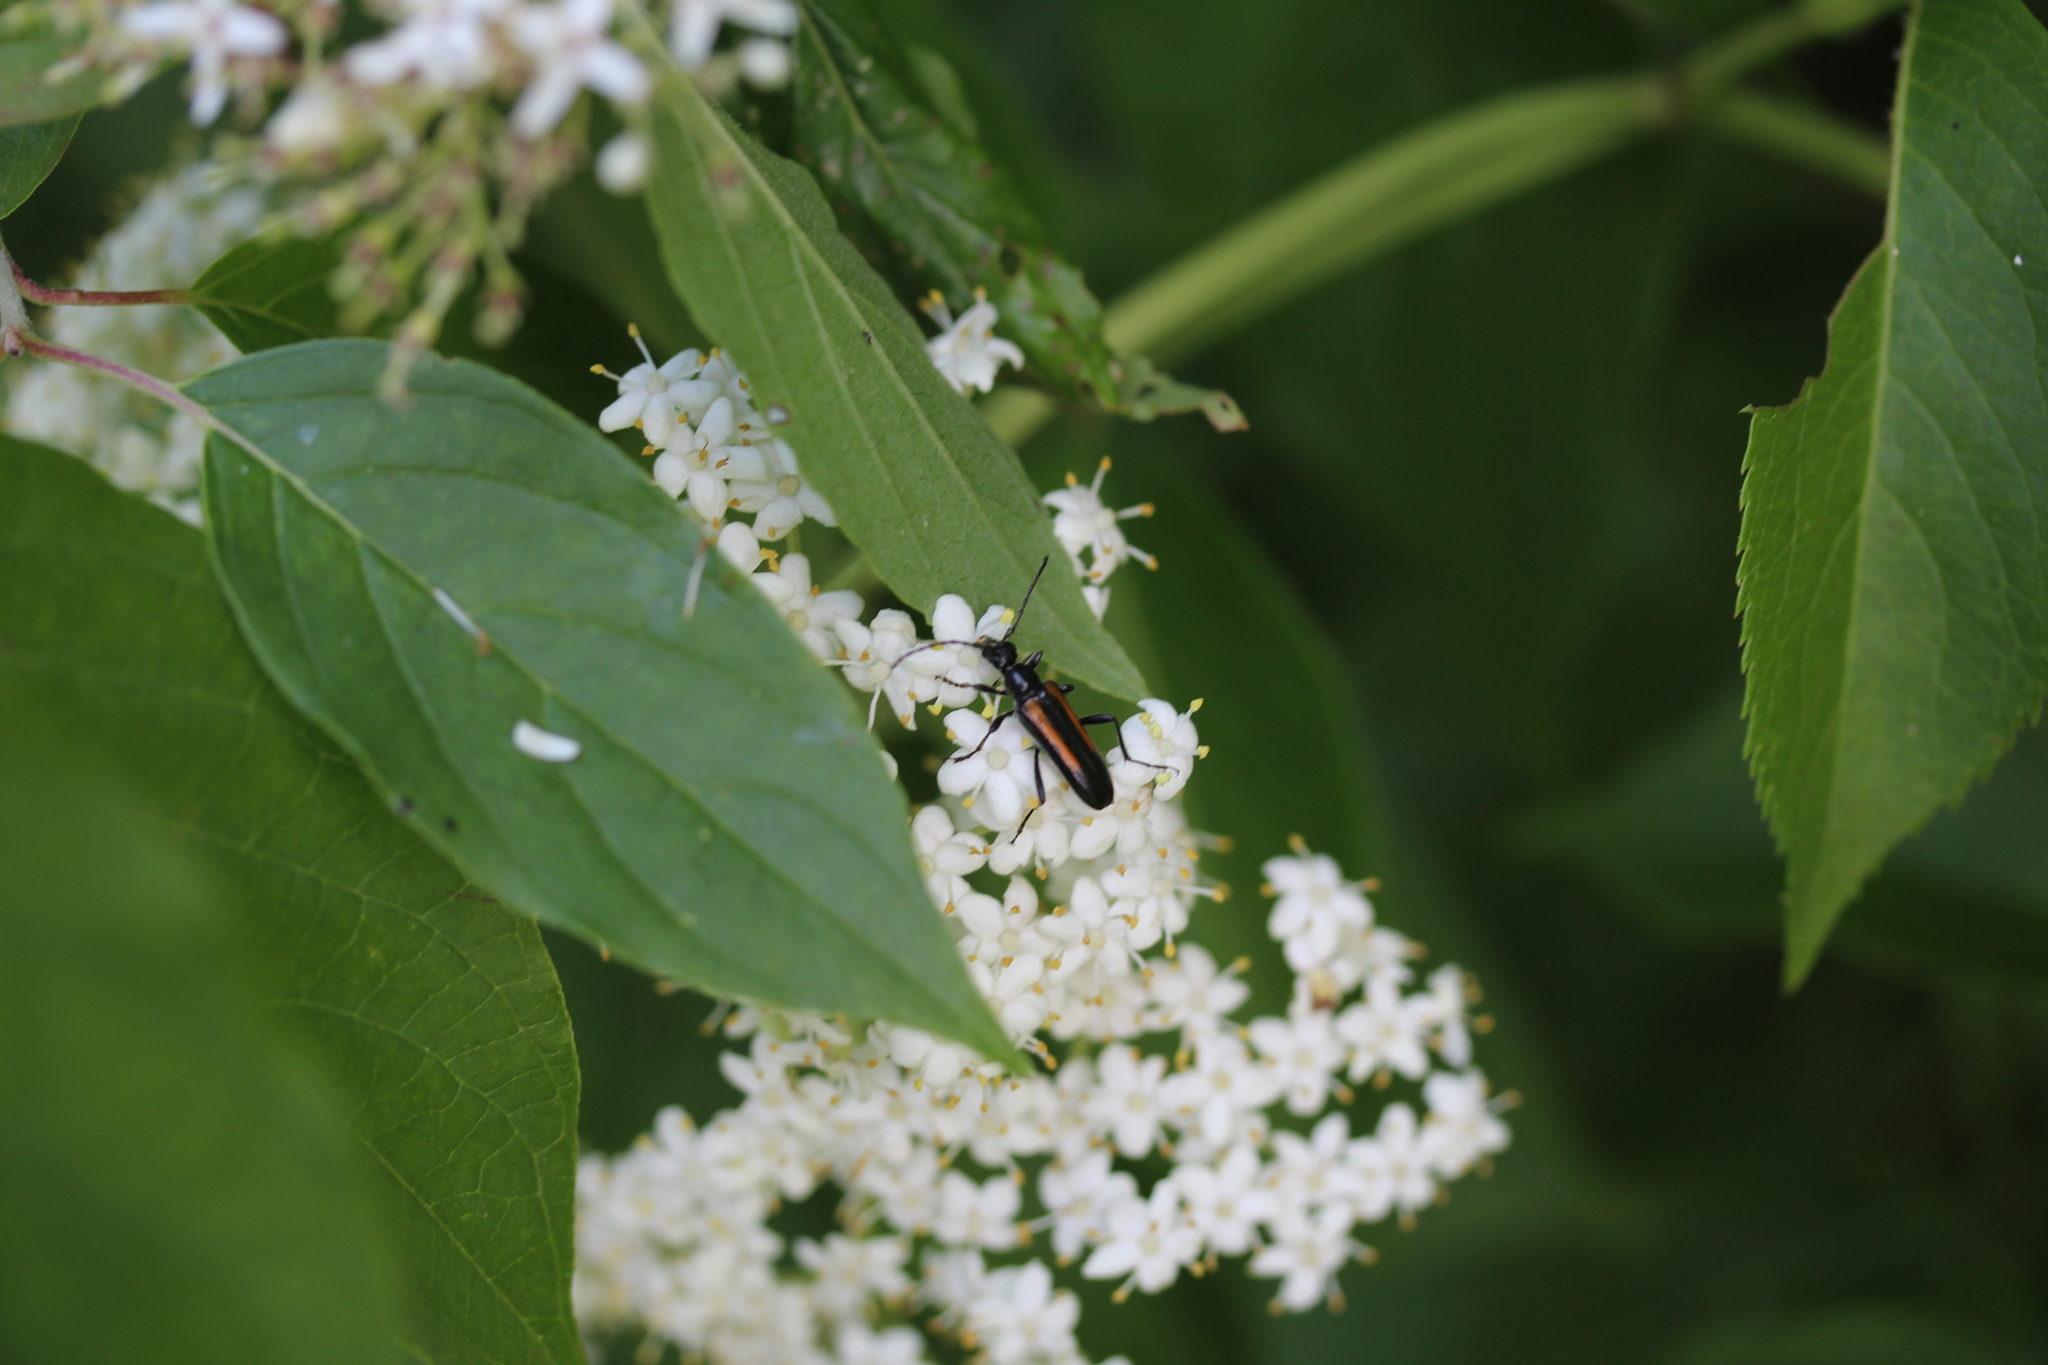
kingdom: Animalia
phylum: Arthropoda
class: Insecta
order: Coleoptera
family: Cerambycidae
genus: Strangalepta
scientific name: Strangalepta abbreviata
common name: Strangalepta flower longhorn beetle
